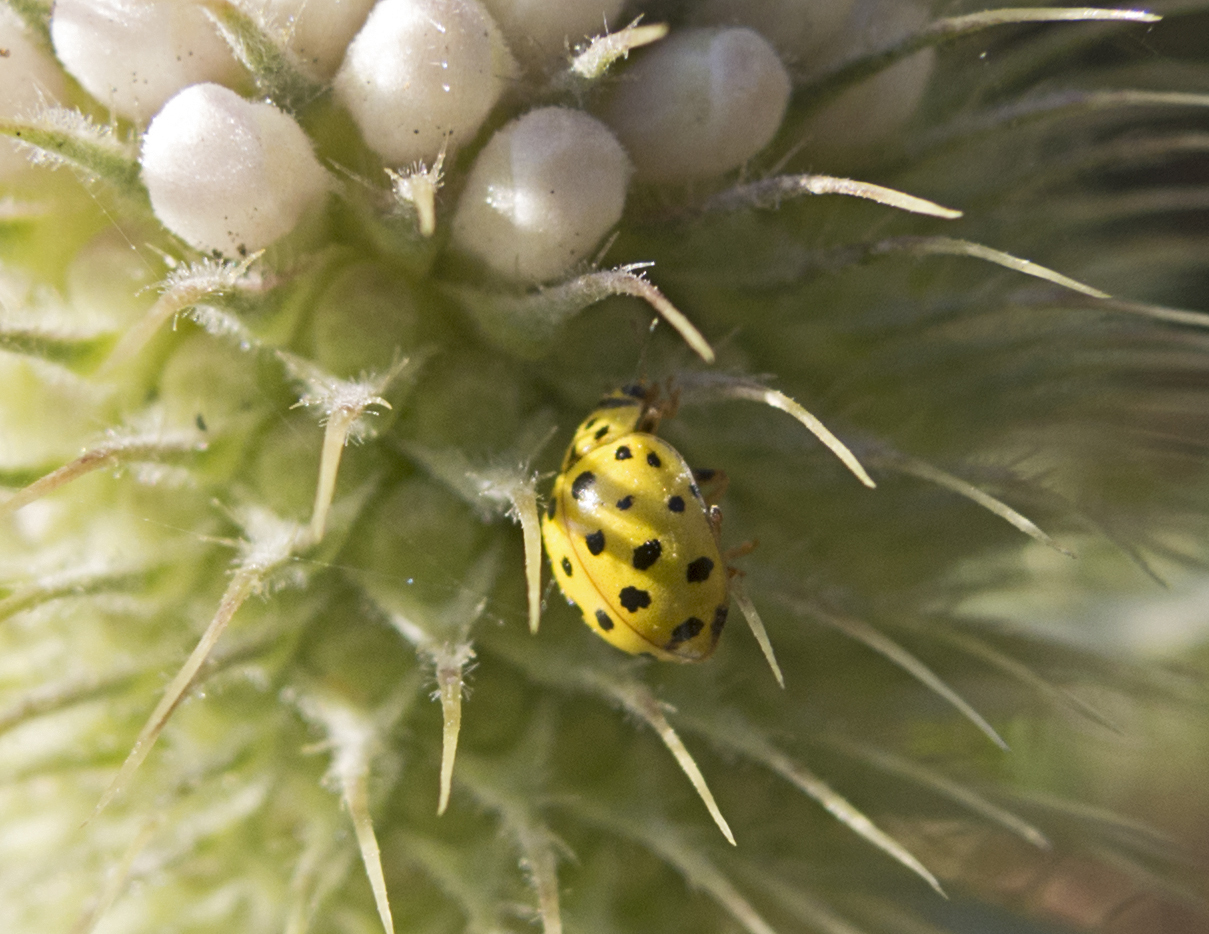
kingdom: Animalia
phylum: Arthropoda
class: Insecta
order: Coleoptera
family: Coccinellidae
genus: Psyllobora
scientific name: Psyllobora vigintiduopunctata
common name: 22-spot ladybird
